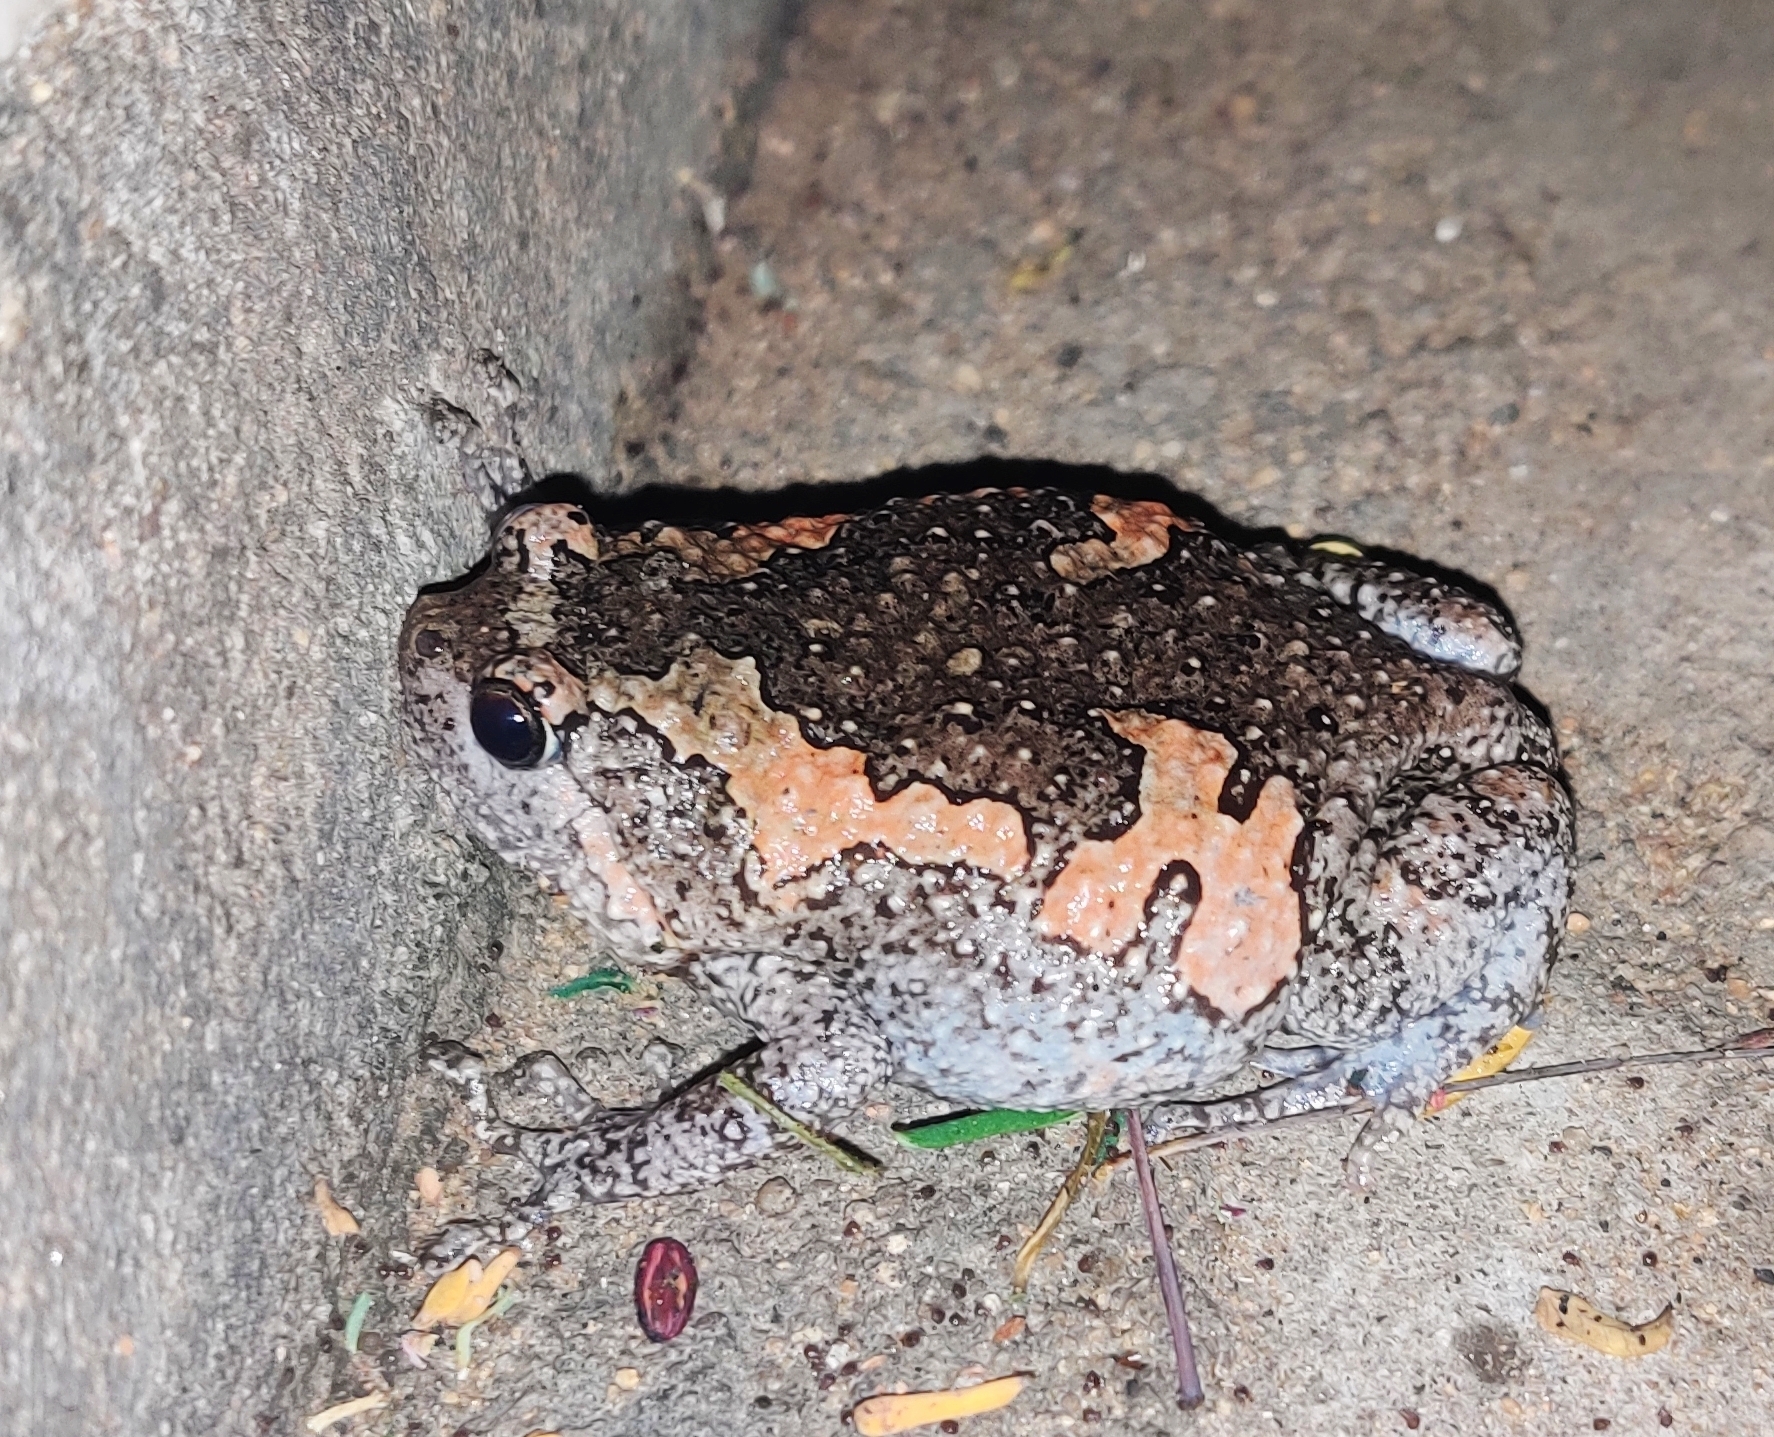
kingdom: Animalia
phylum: Chordata
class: Amphibia
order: Anura
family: Microhylidae
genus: Uperodon
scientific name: Uperodon taprobanicus
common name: Ceylon kaloula
